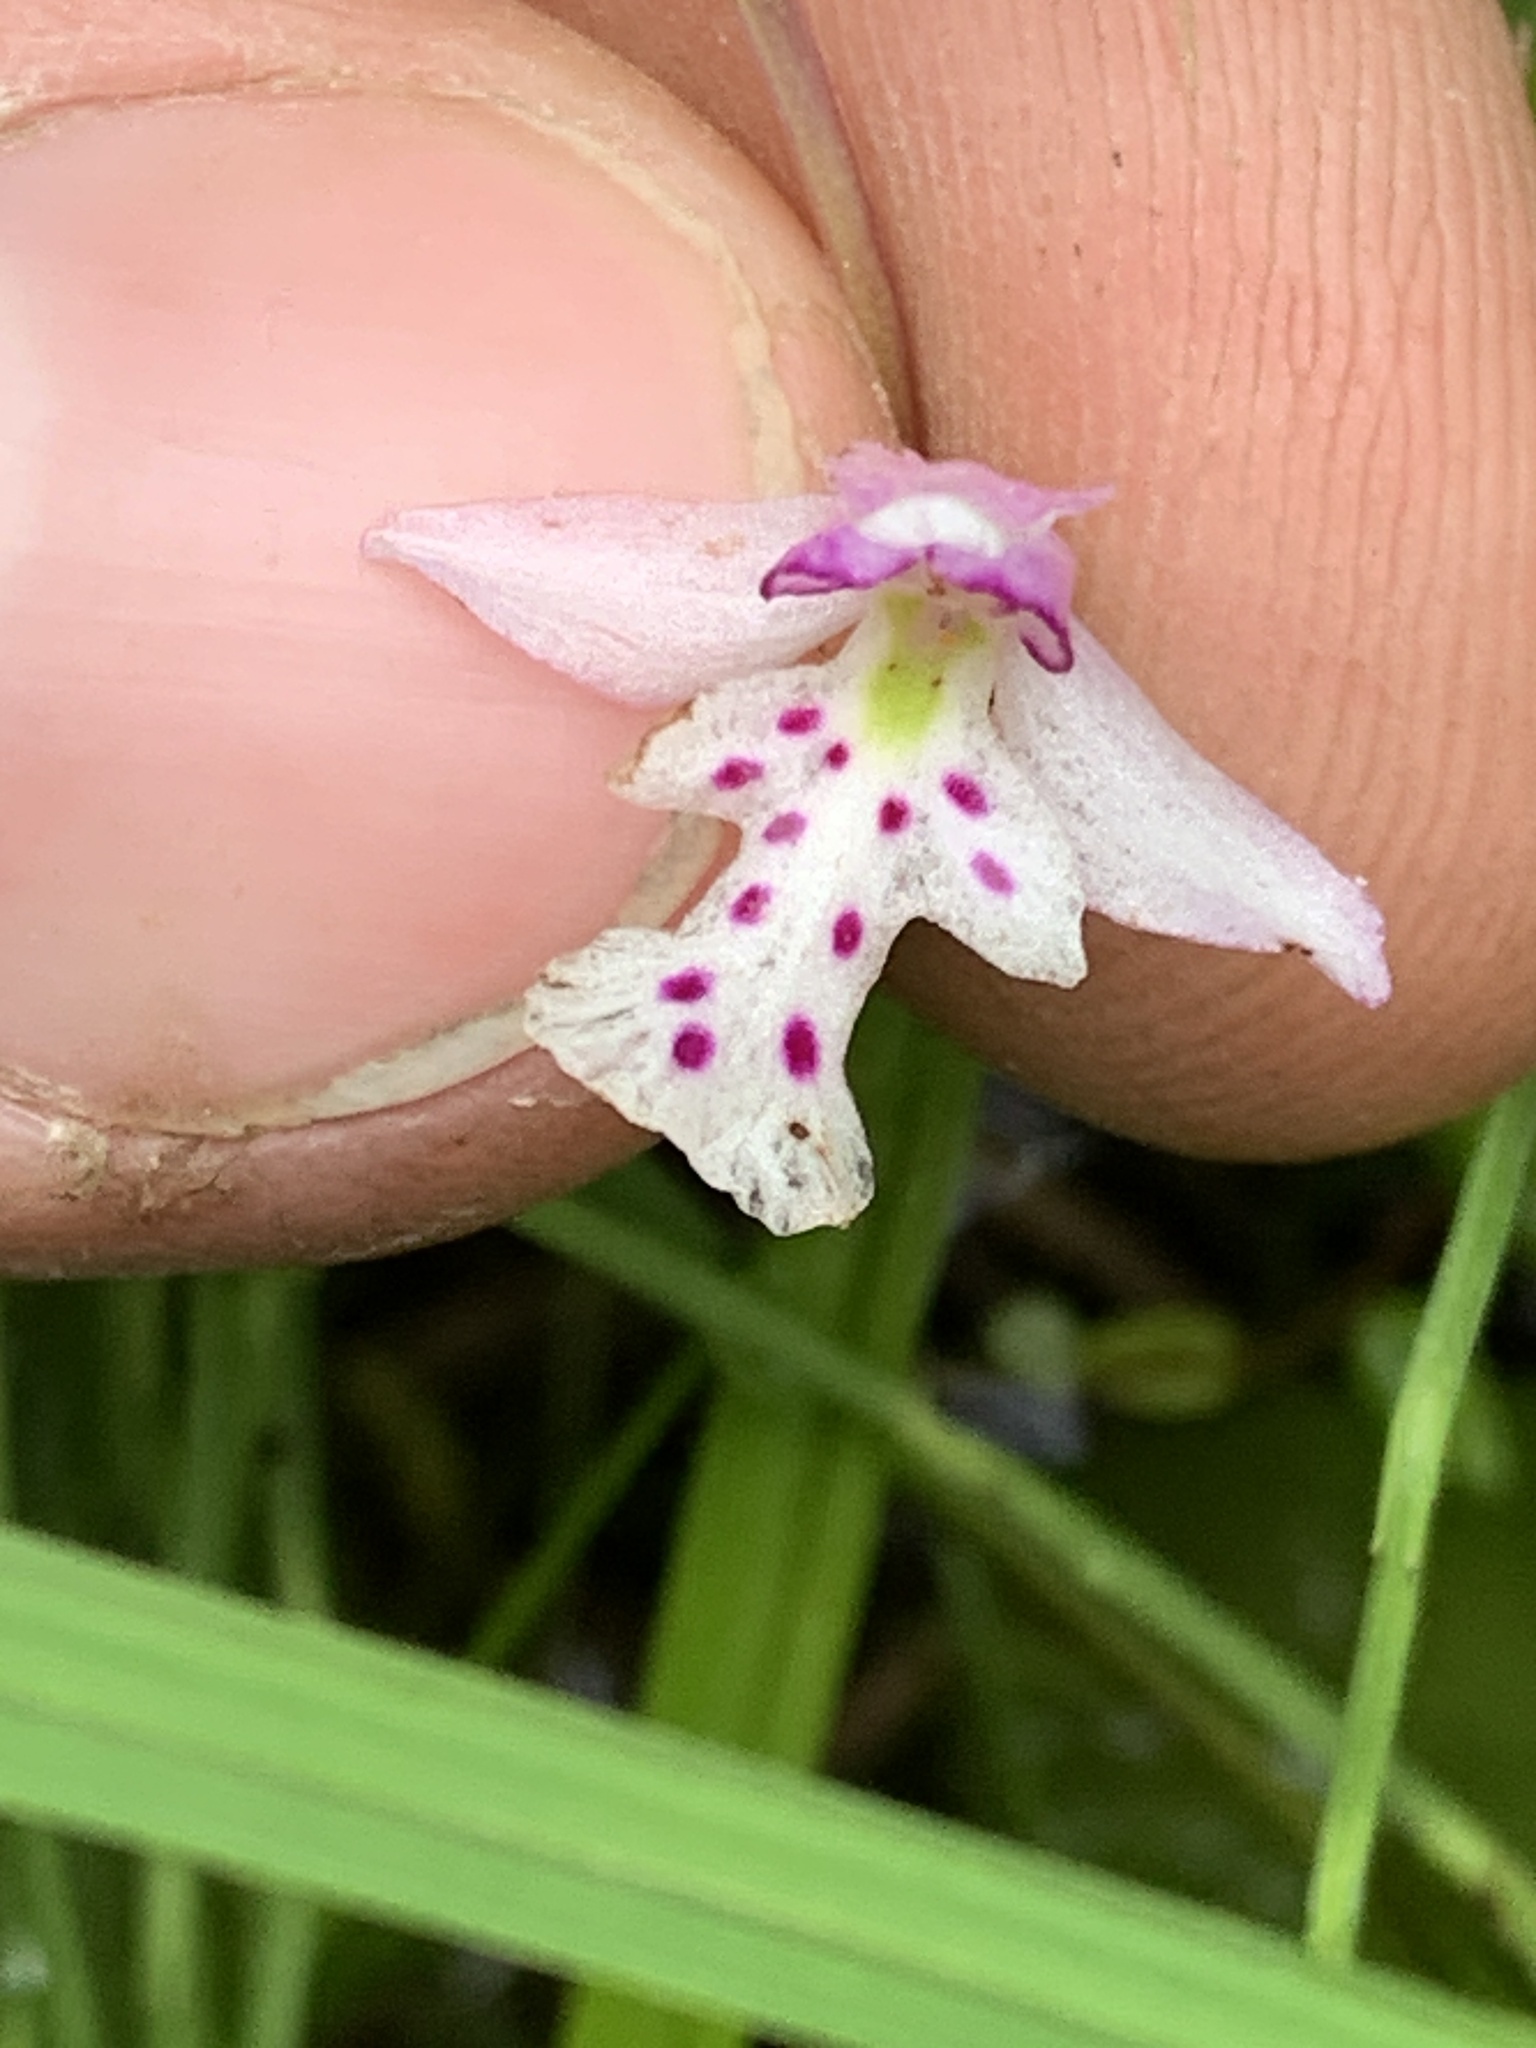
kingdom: Plantae
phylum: Tracheophyta
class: Liliopsida
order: Asparagales
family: Orchidaceae
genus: Galearis
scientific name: Galearis rotundifolia
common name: One-leaved orchis
